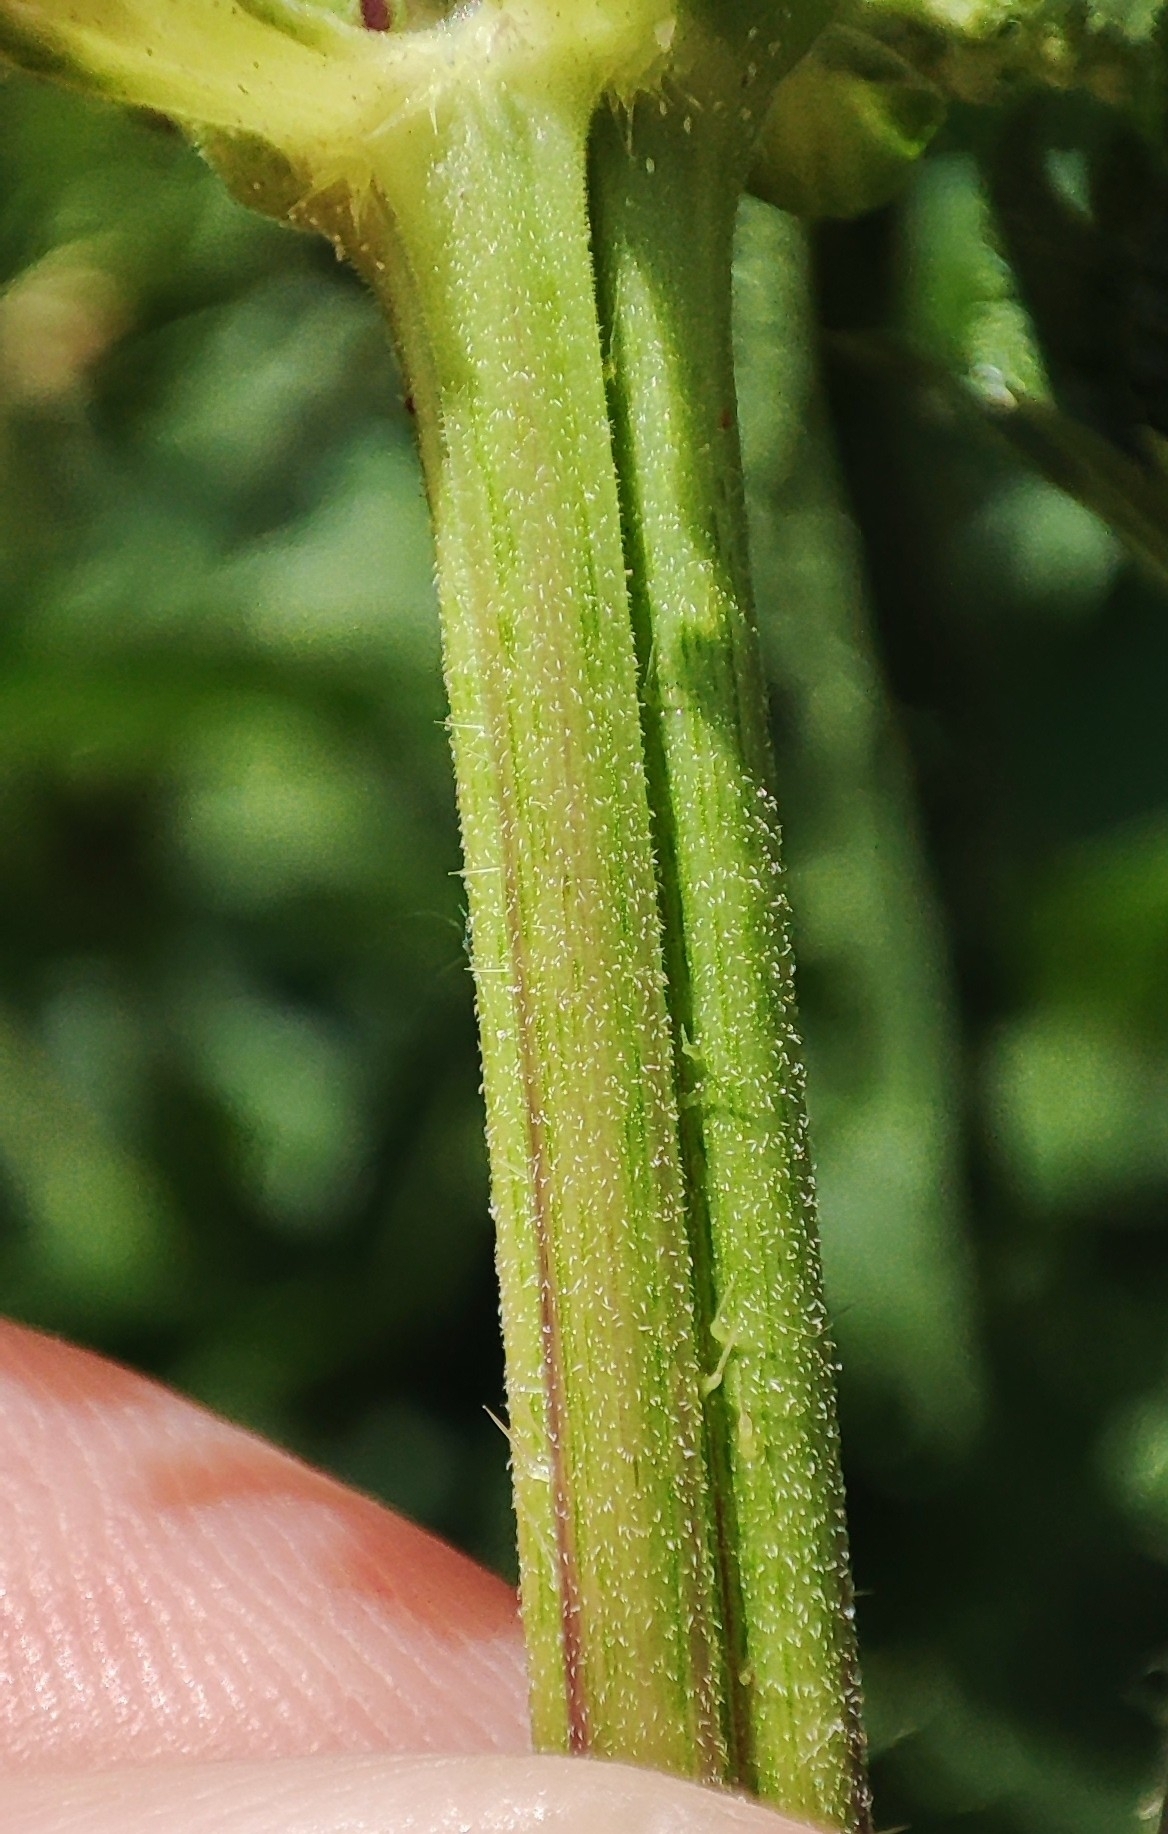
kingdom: Plantae
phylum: Tracheophyta
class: Magnoliopsida
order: Rosales
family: Urticaceae
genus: Urtica
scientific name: Urtica dioica
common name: Common nettle
